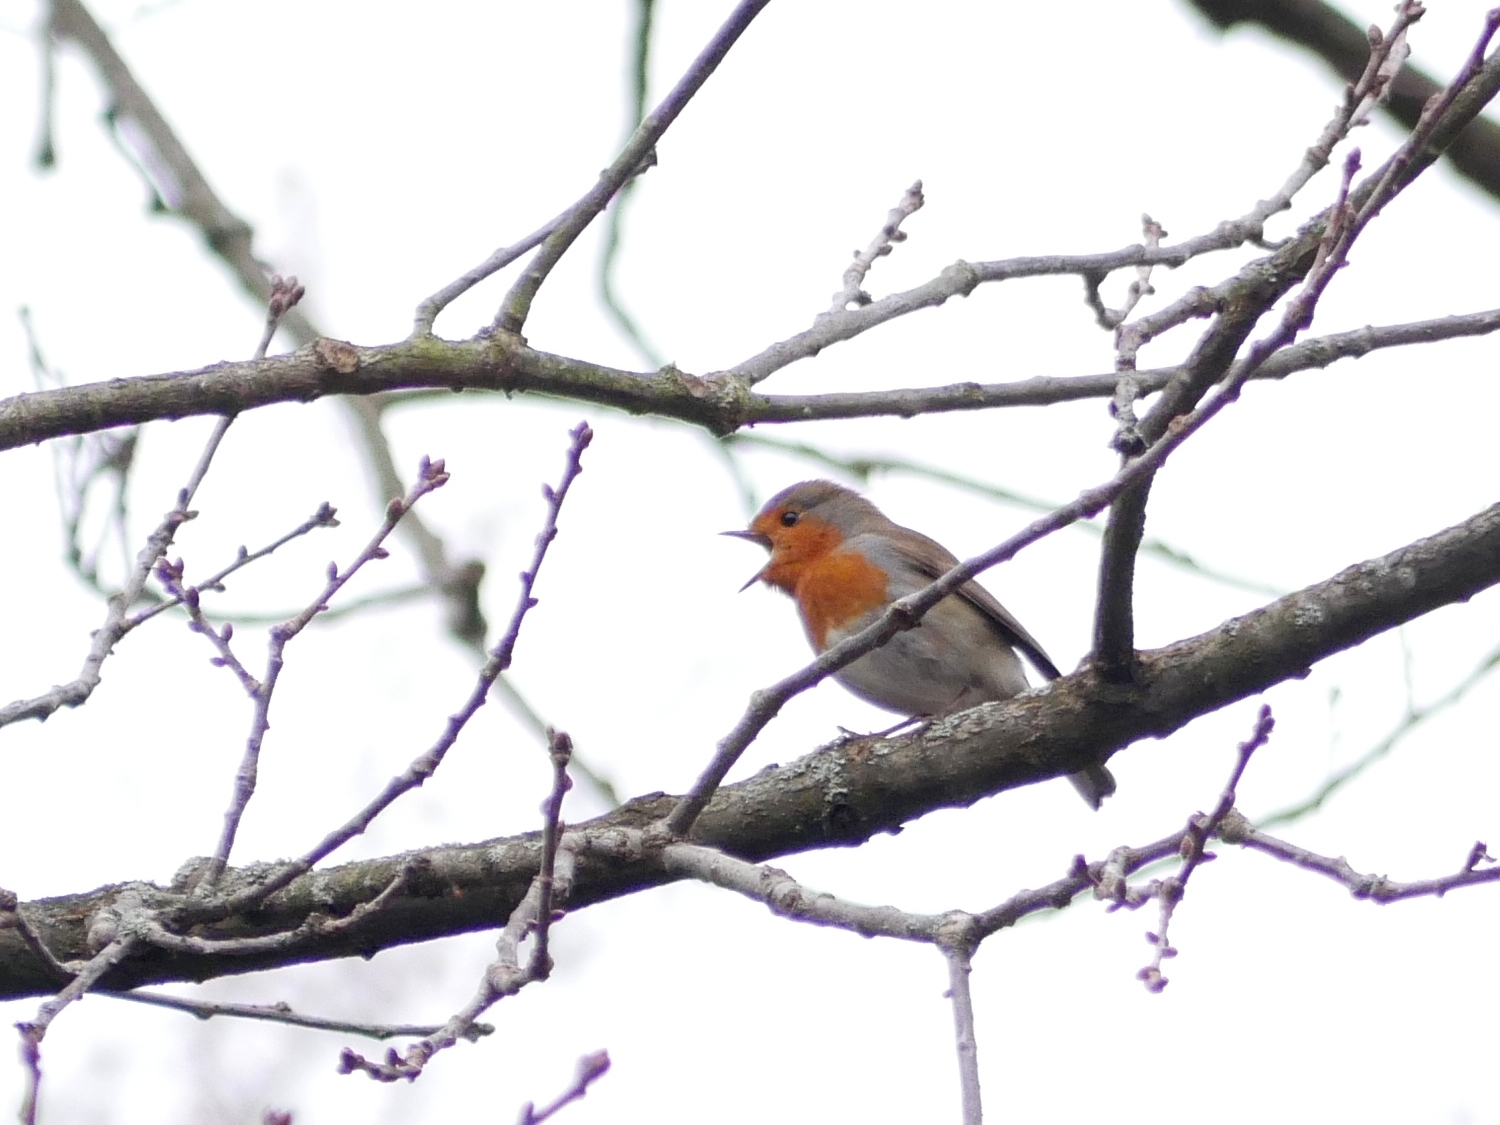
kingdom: Animalia
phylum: Chordata
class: Aves
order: Passeriformes
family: Muscicapidae
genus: Erithacus
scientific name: Erithacus rubecula
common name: European robin
